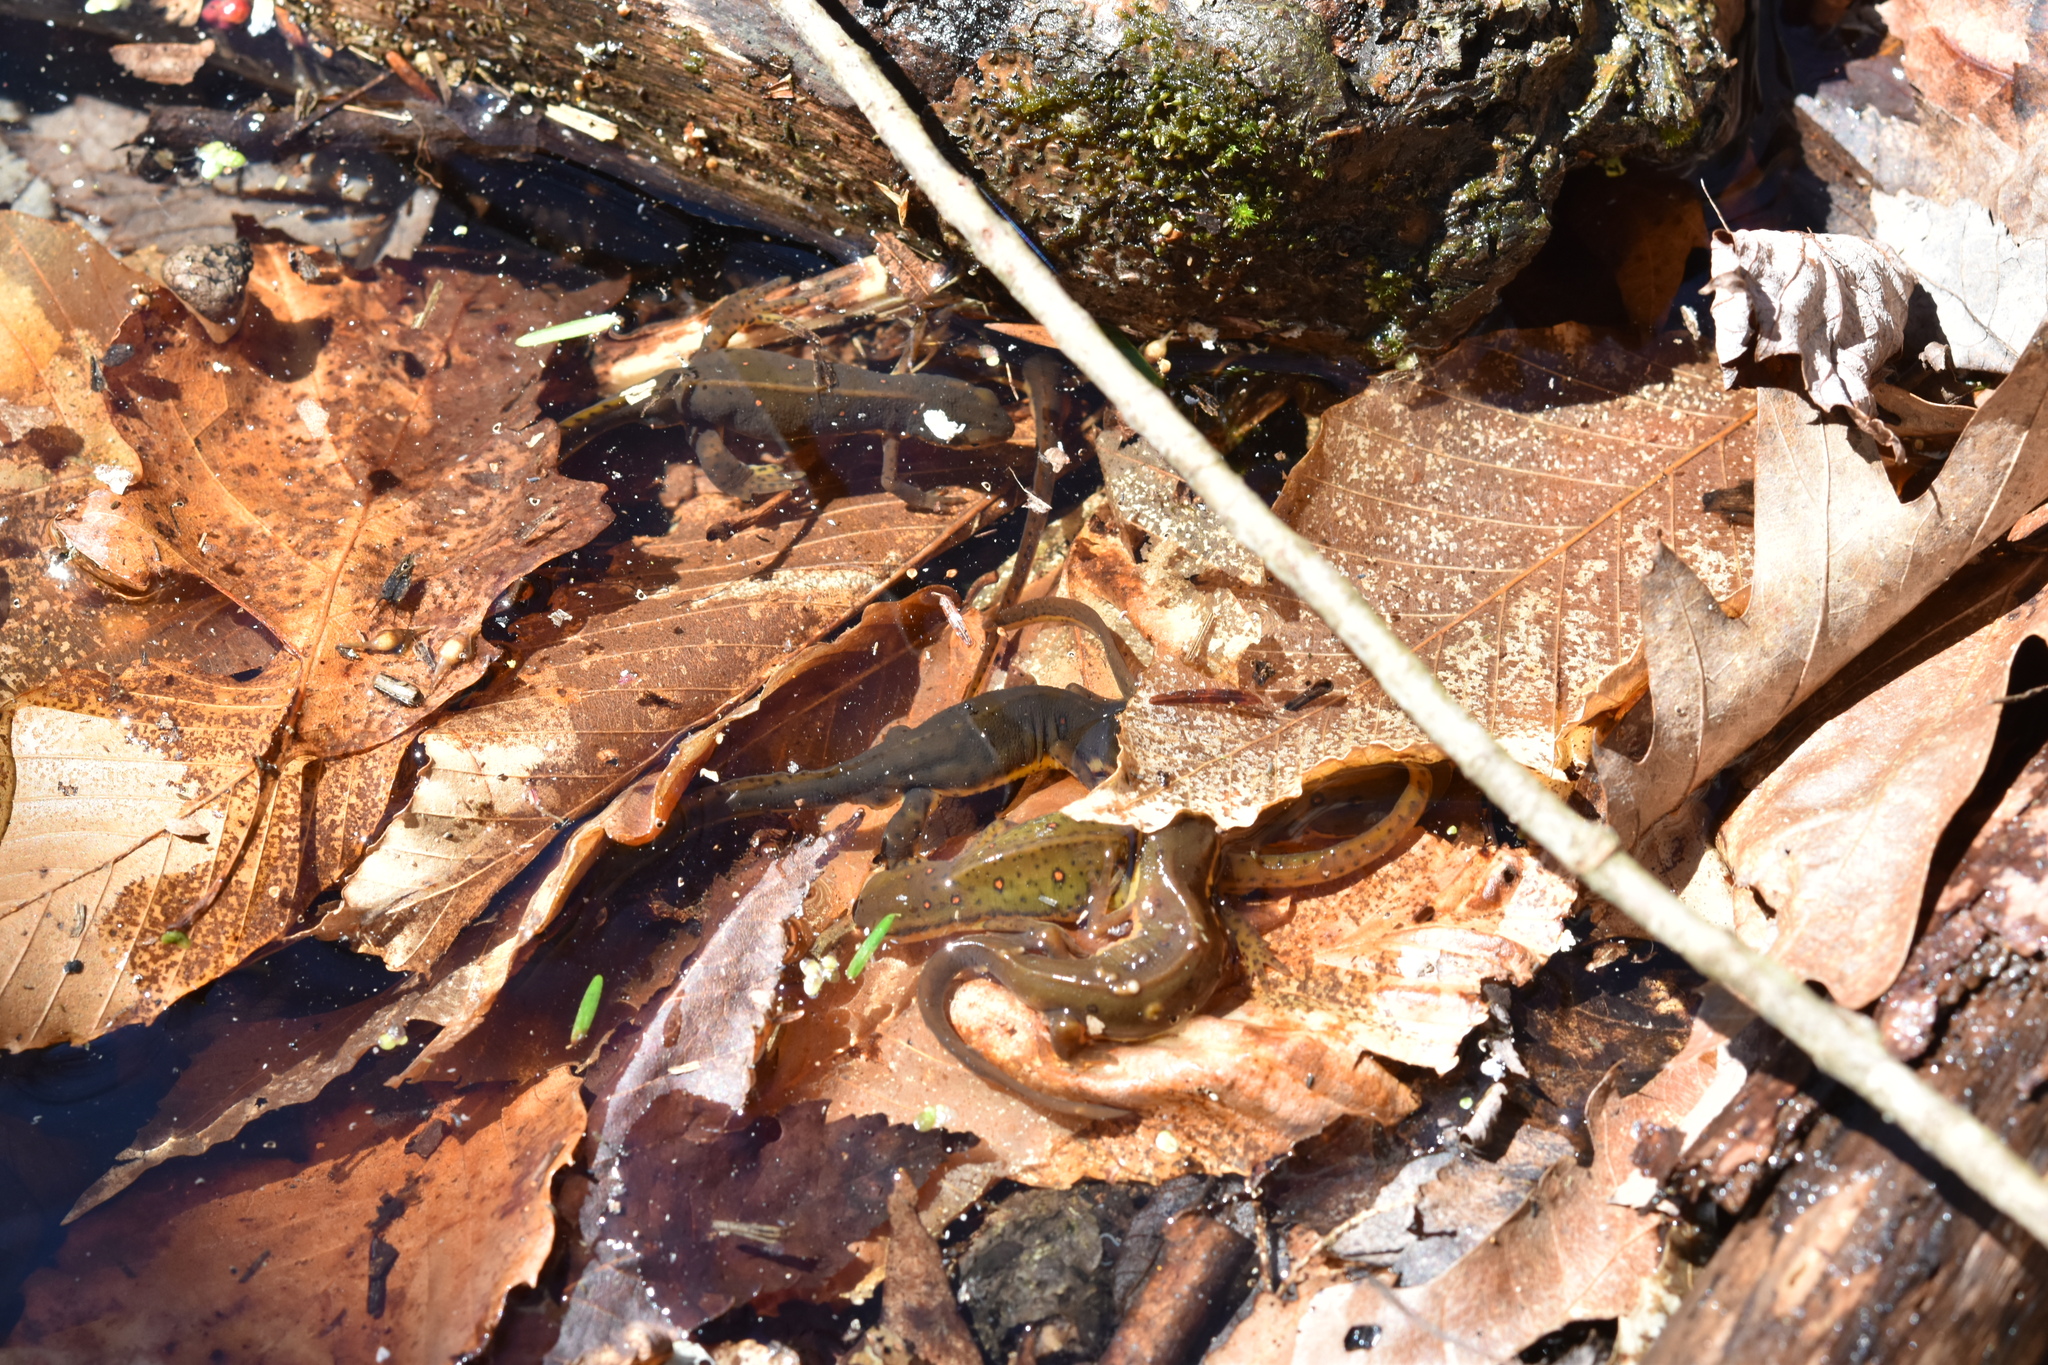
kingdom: Animalia
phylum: Chordata
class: Amphibia
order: Caudata
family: Salamandridae
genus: Notophthalmus
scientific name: Notophthalmus viridescens
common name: Eastern newt
